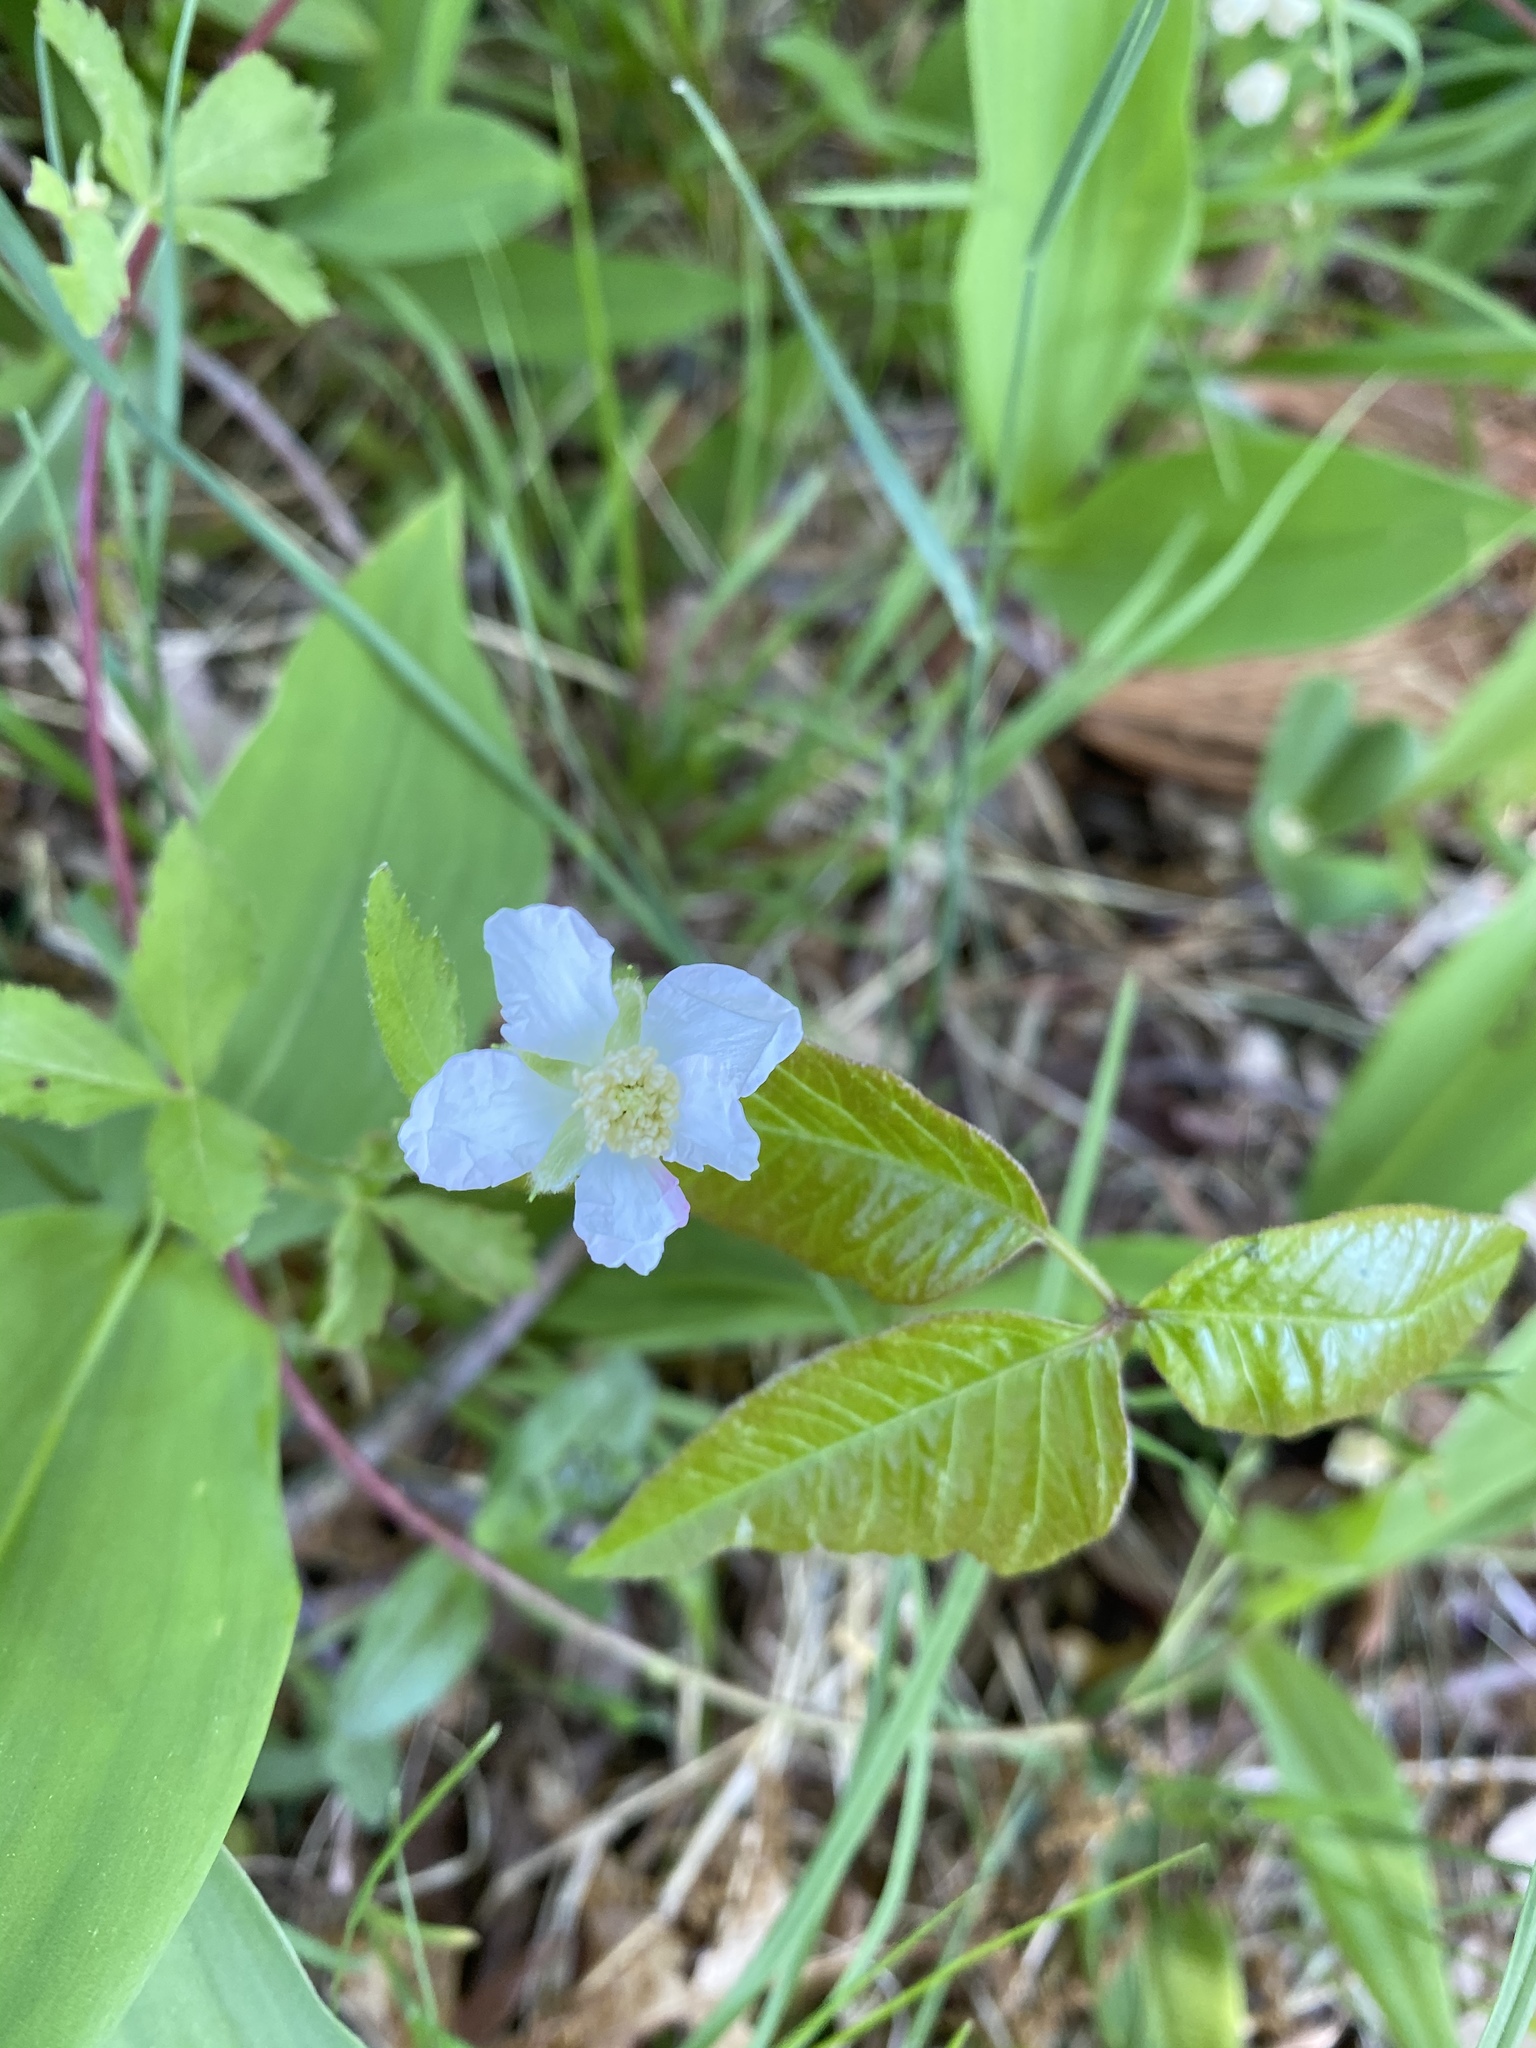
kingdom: Plantae
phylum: Tracheophyta
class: Magnoliopsida
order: Rosales
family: Rosaceae
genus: Rubus
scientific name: Rubus pubescens
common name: Dwarf raspberry
